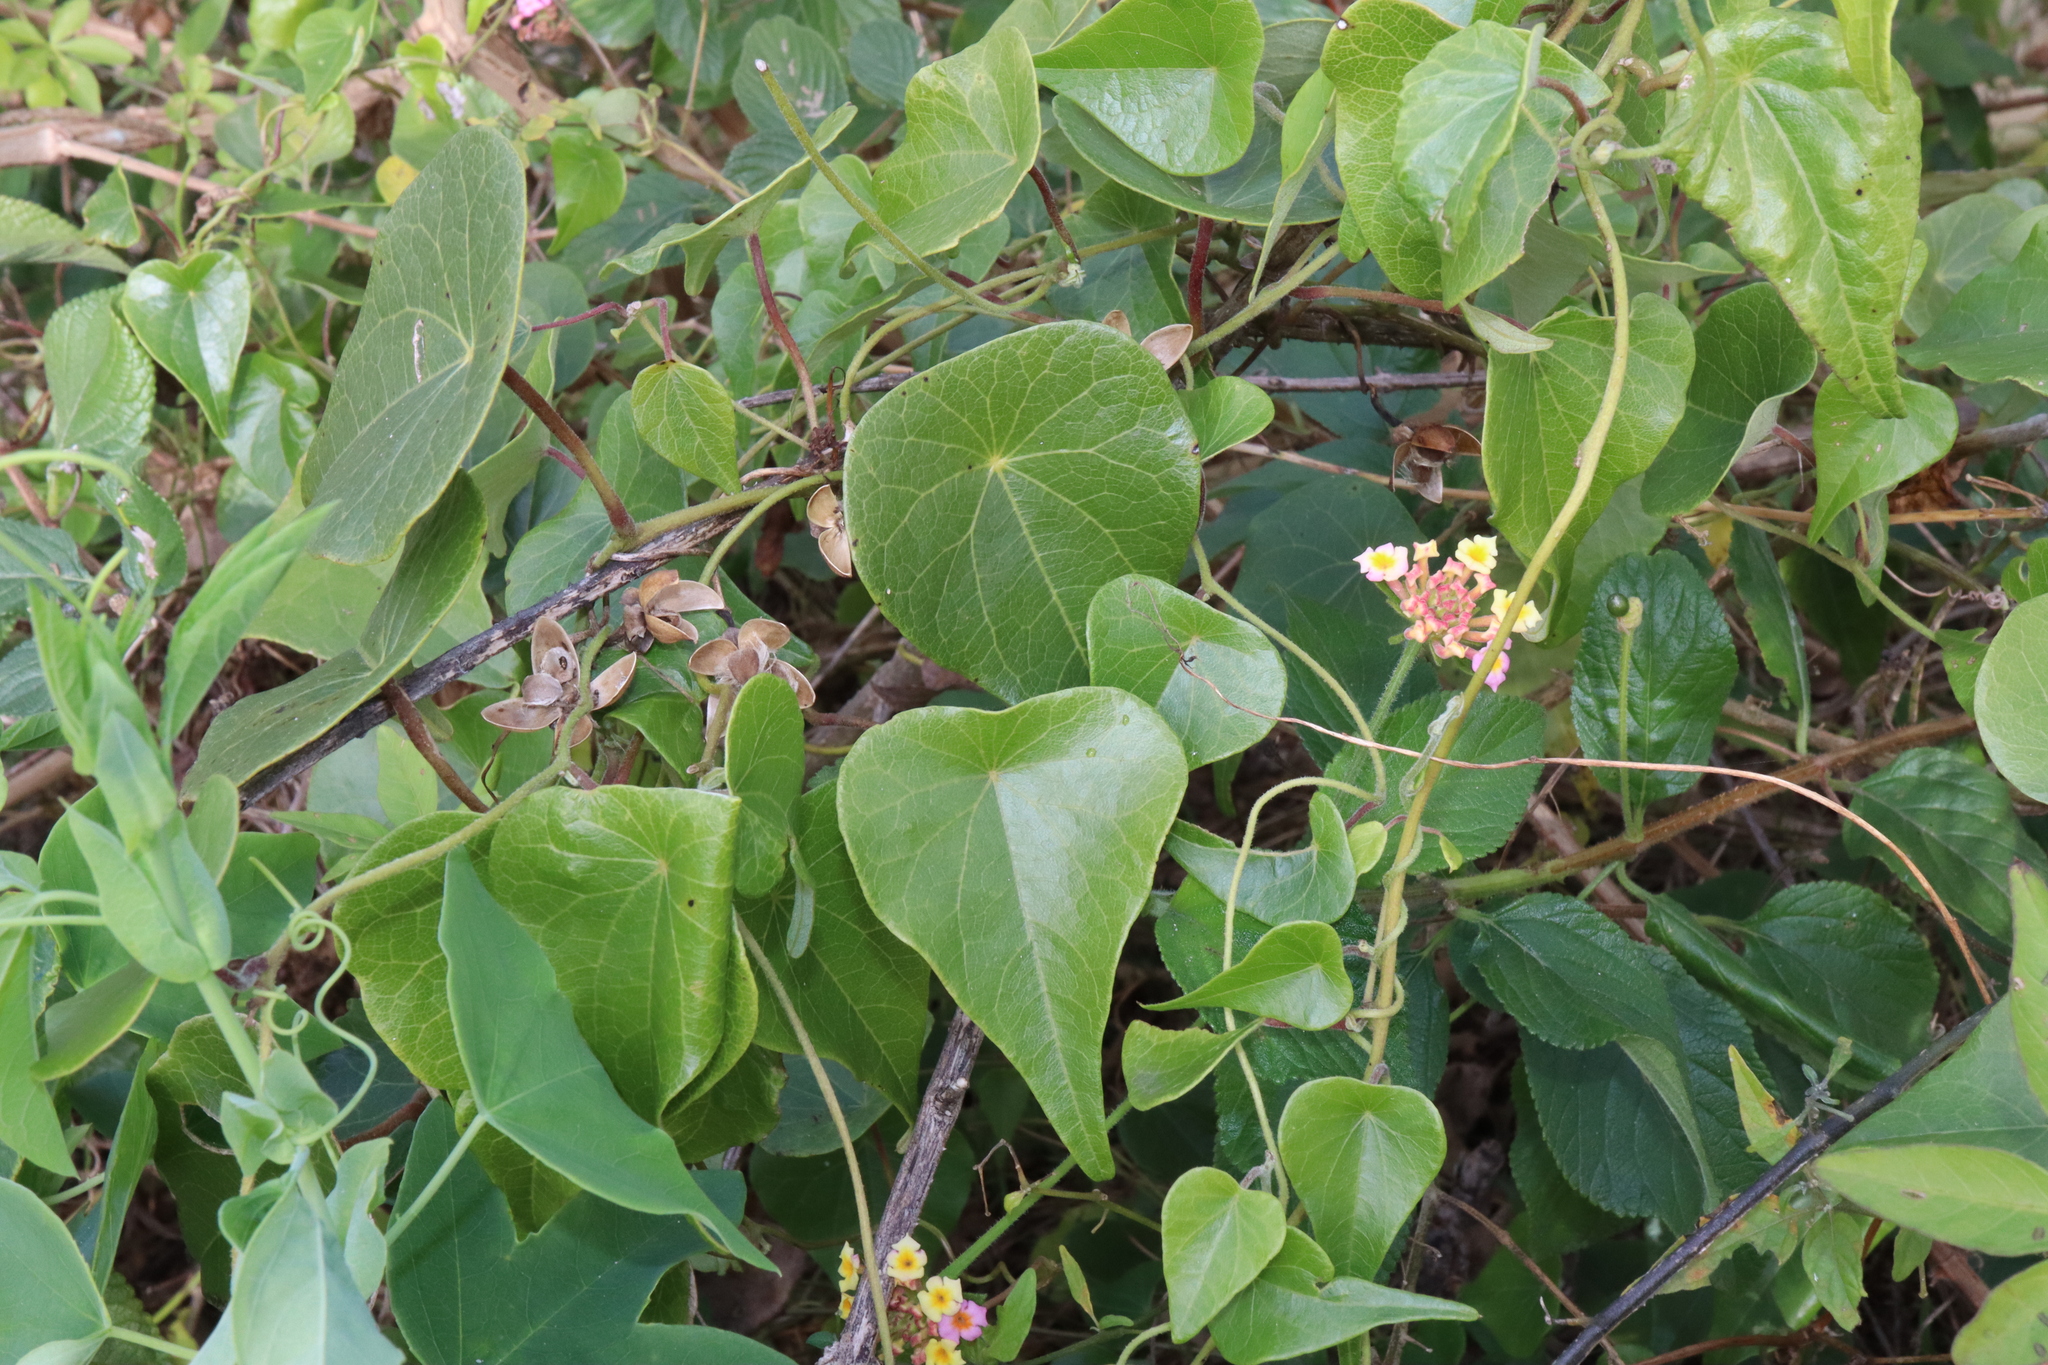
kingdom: Plantae
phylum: Tracheophyta
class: Magnoliopsida
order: Ranunculales
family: Menispermaceae
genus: Stephania
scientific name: Stephania japonica
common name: Snake vine
